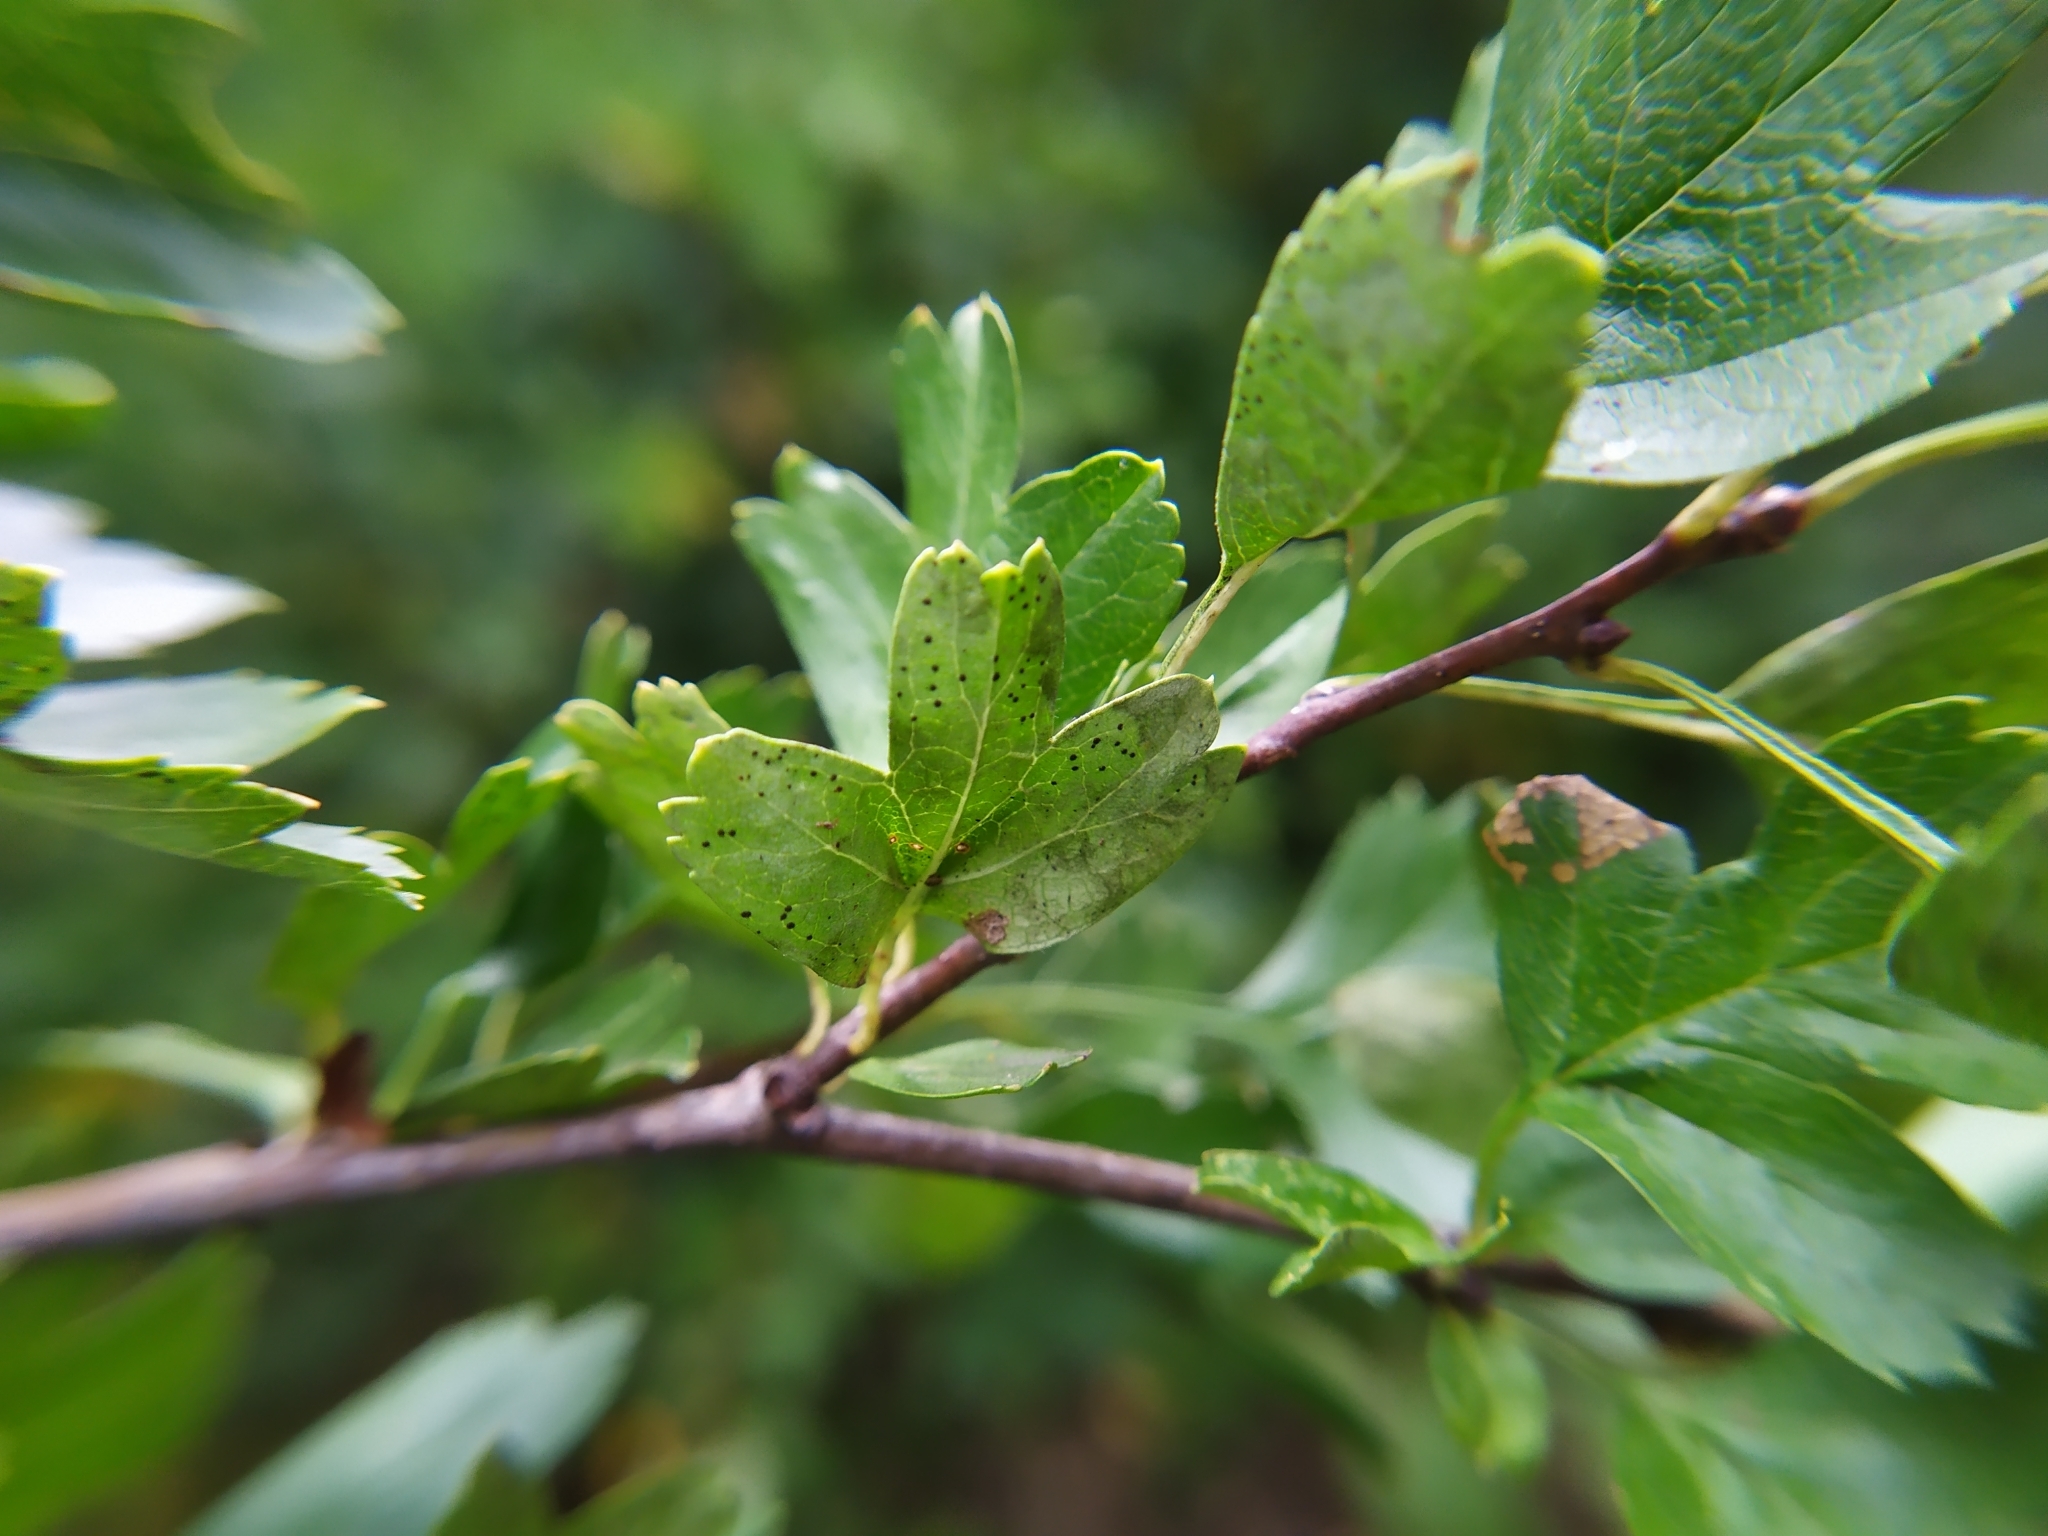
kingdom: Fungi
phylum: Ascomycota
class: Dothideomycetes
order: Botryosphaeriales
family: Phyllostictaceae
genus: Phyllosticta
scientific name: Phyllosticta phaea
